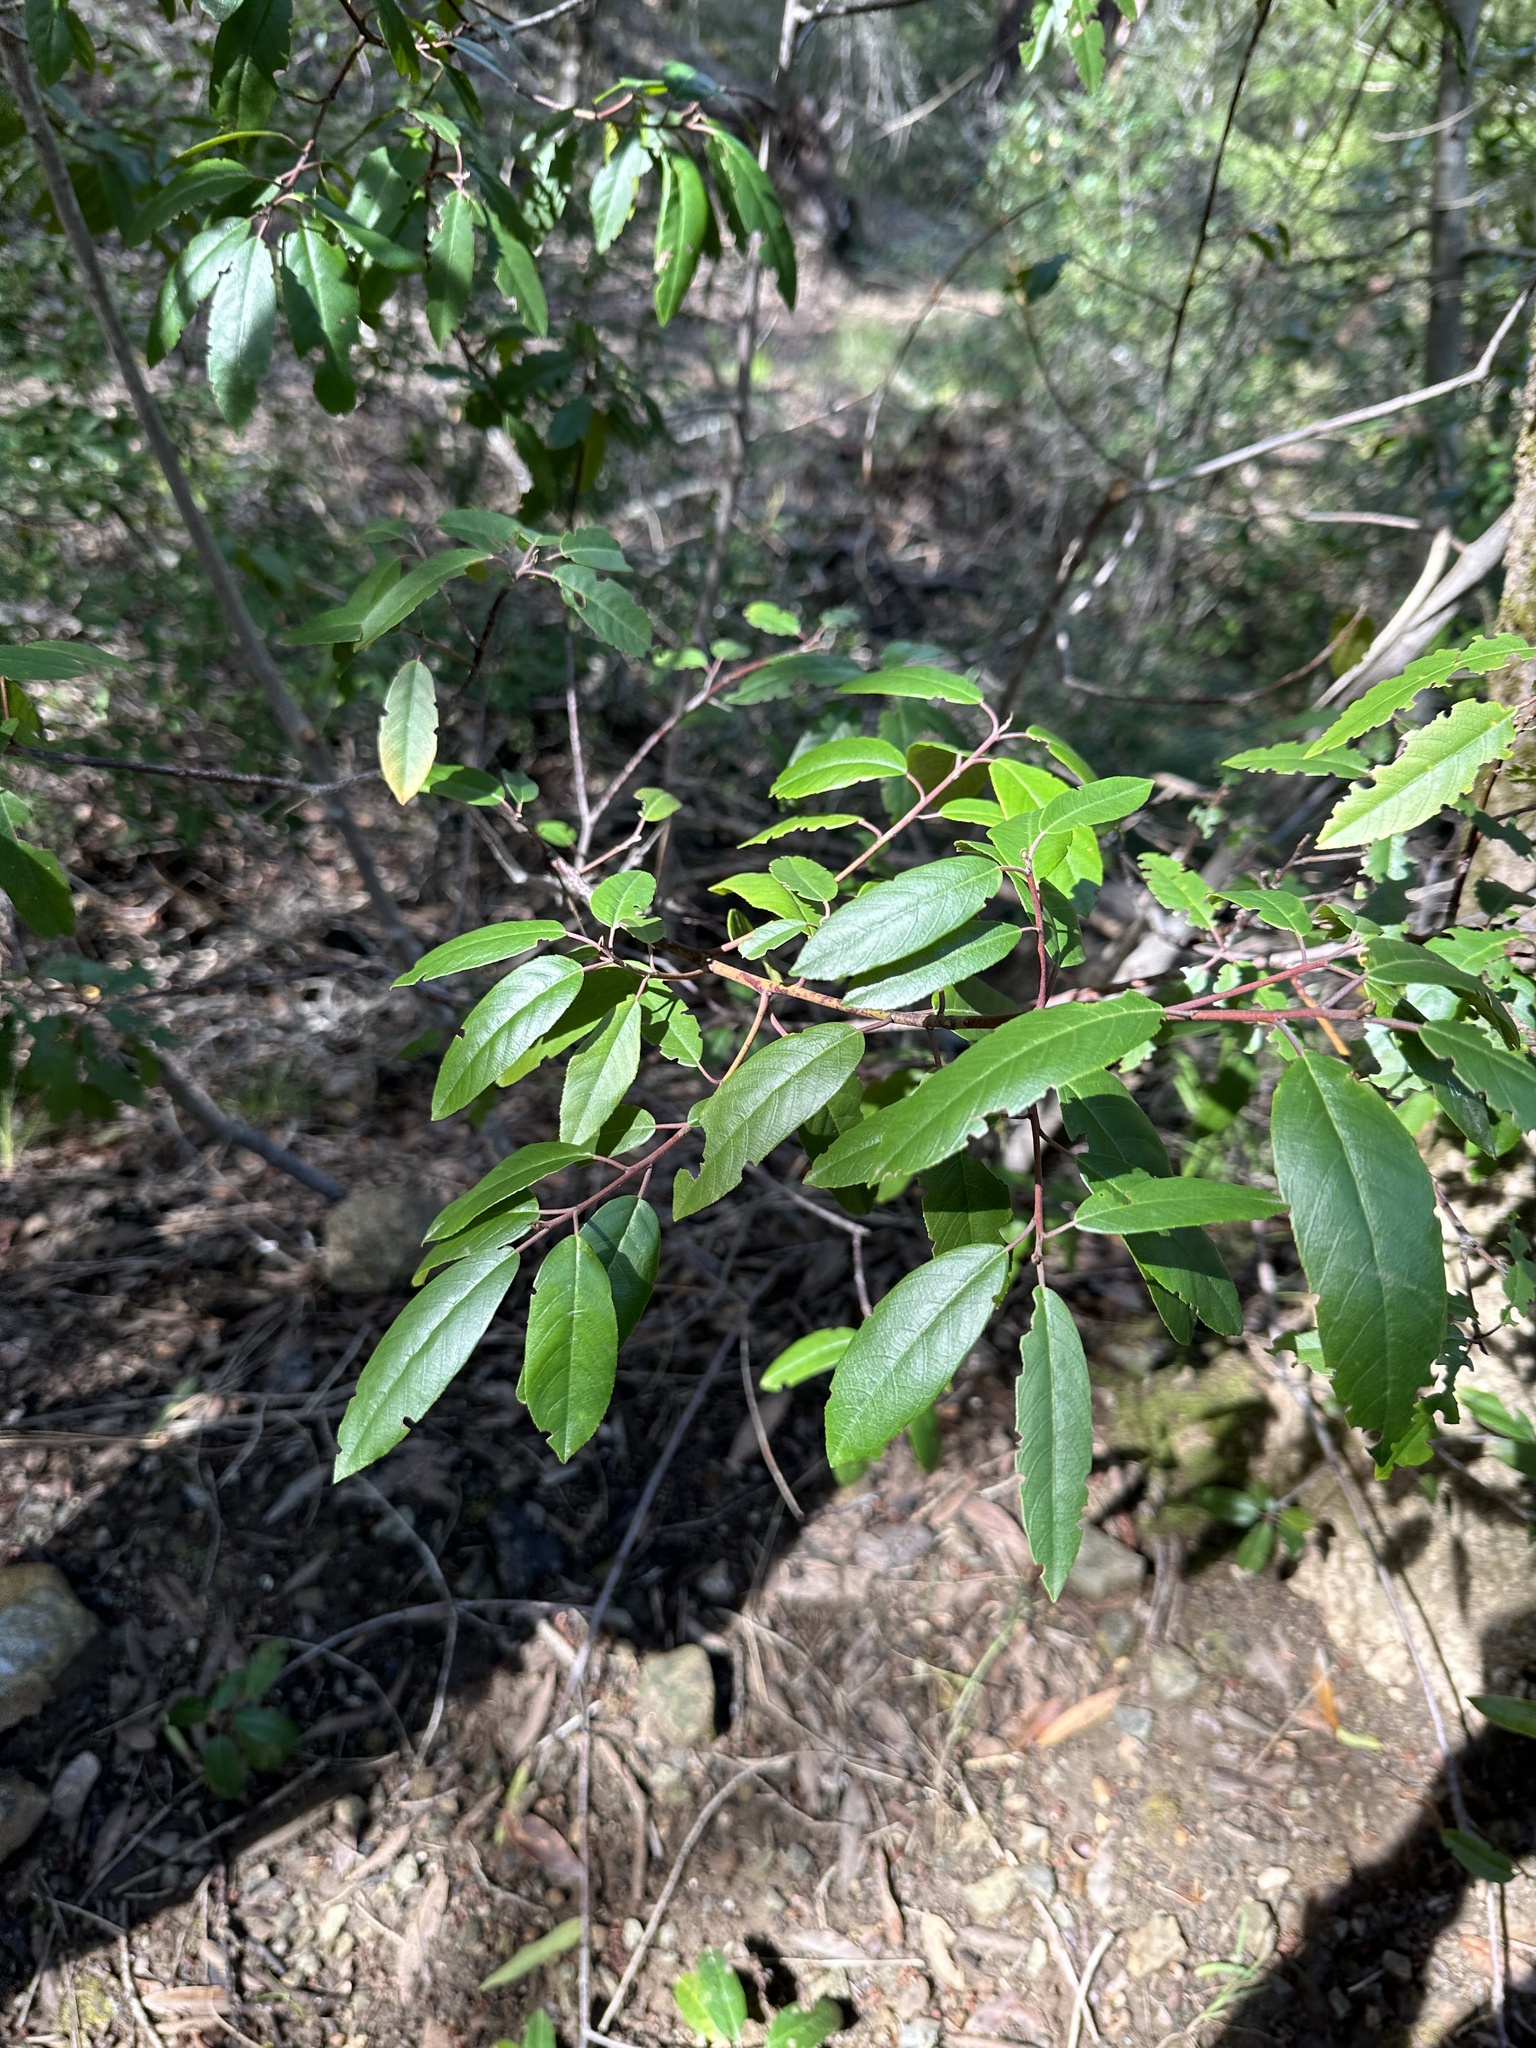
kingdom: Plantae
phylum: Tracheophyta
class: Magnoliopsida
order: Rosales
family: Rhamnaceae
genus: Frangula
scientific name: Frangula californica
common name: California buckthorn
